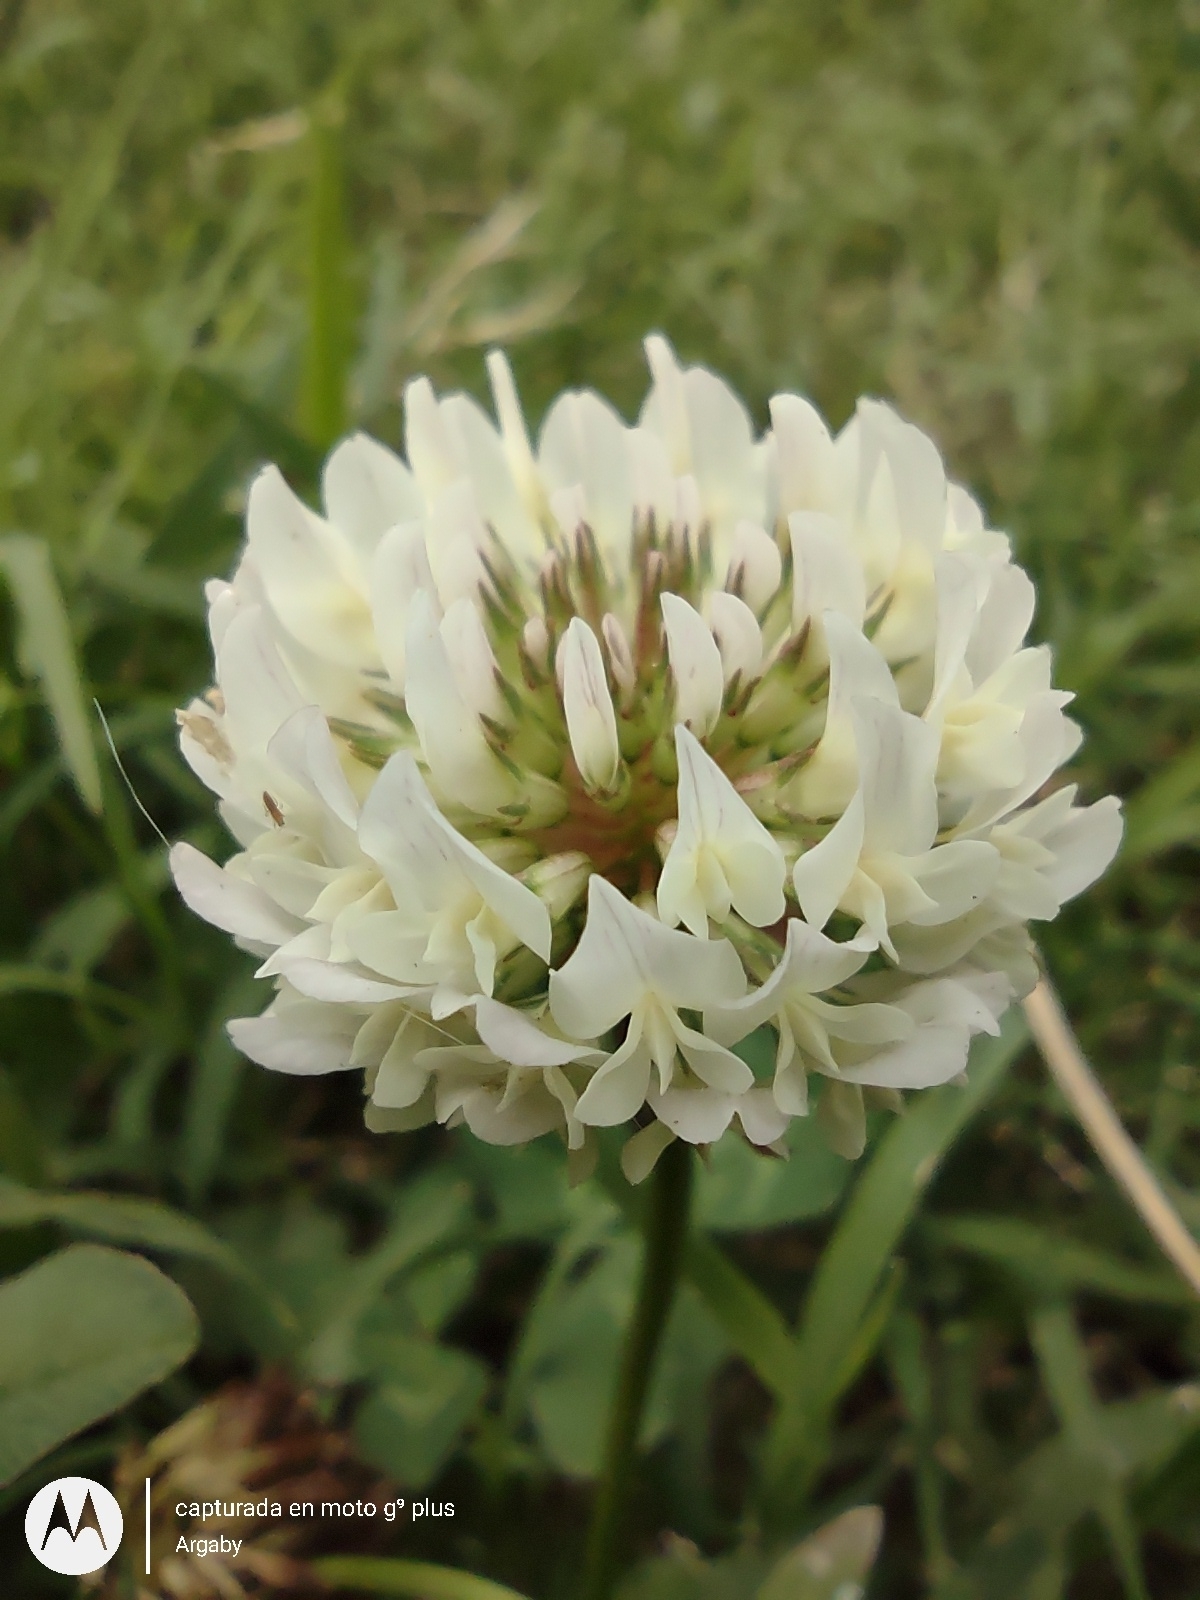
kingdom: Plantae
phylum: Tracheophyta
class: Magnoliopsida
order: Fabales
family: Fabaceae
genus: Trifolium
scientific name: Trifolium repens
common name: White clover
